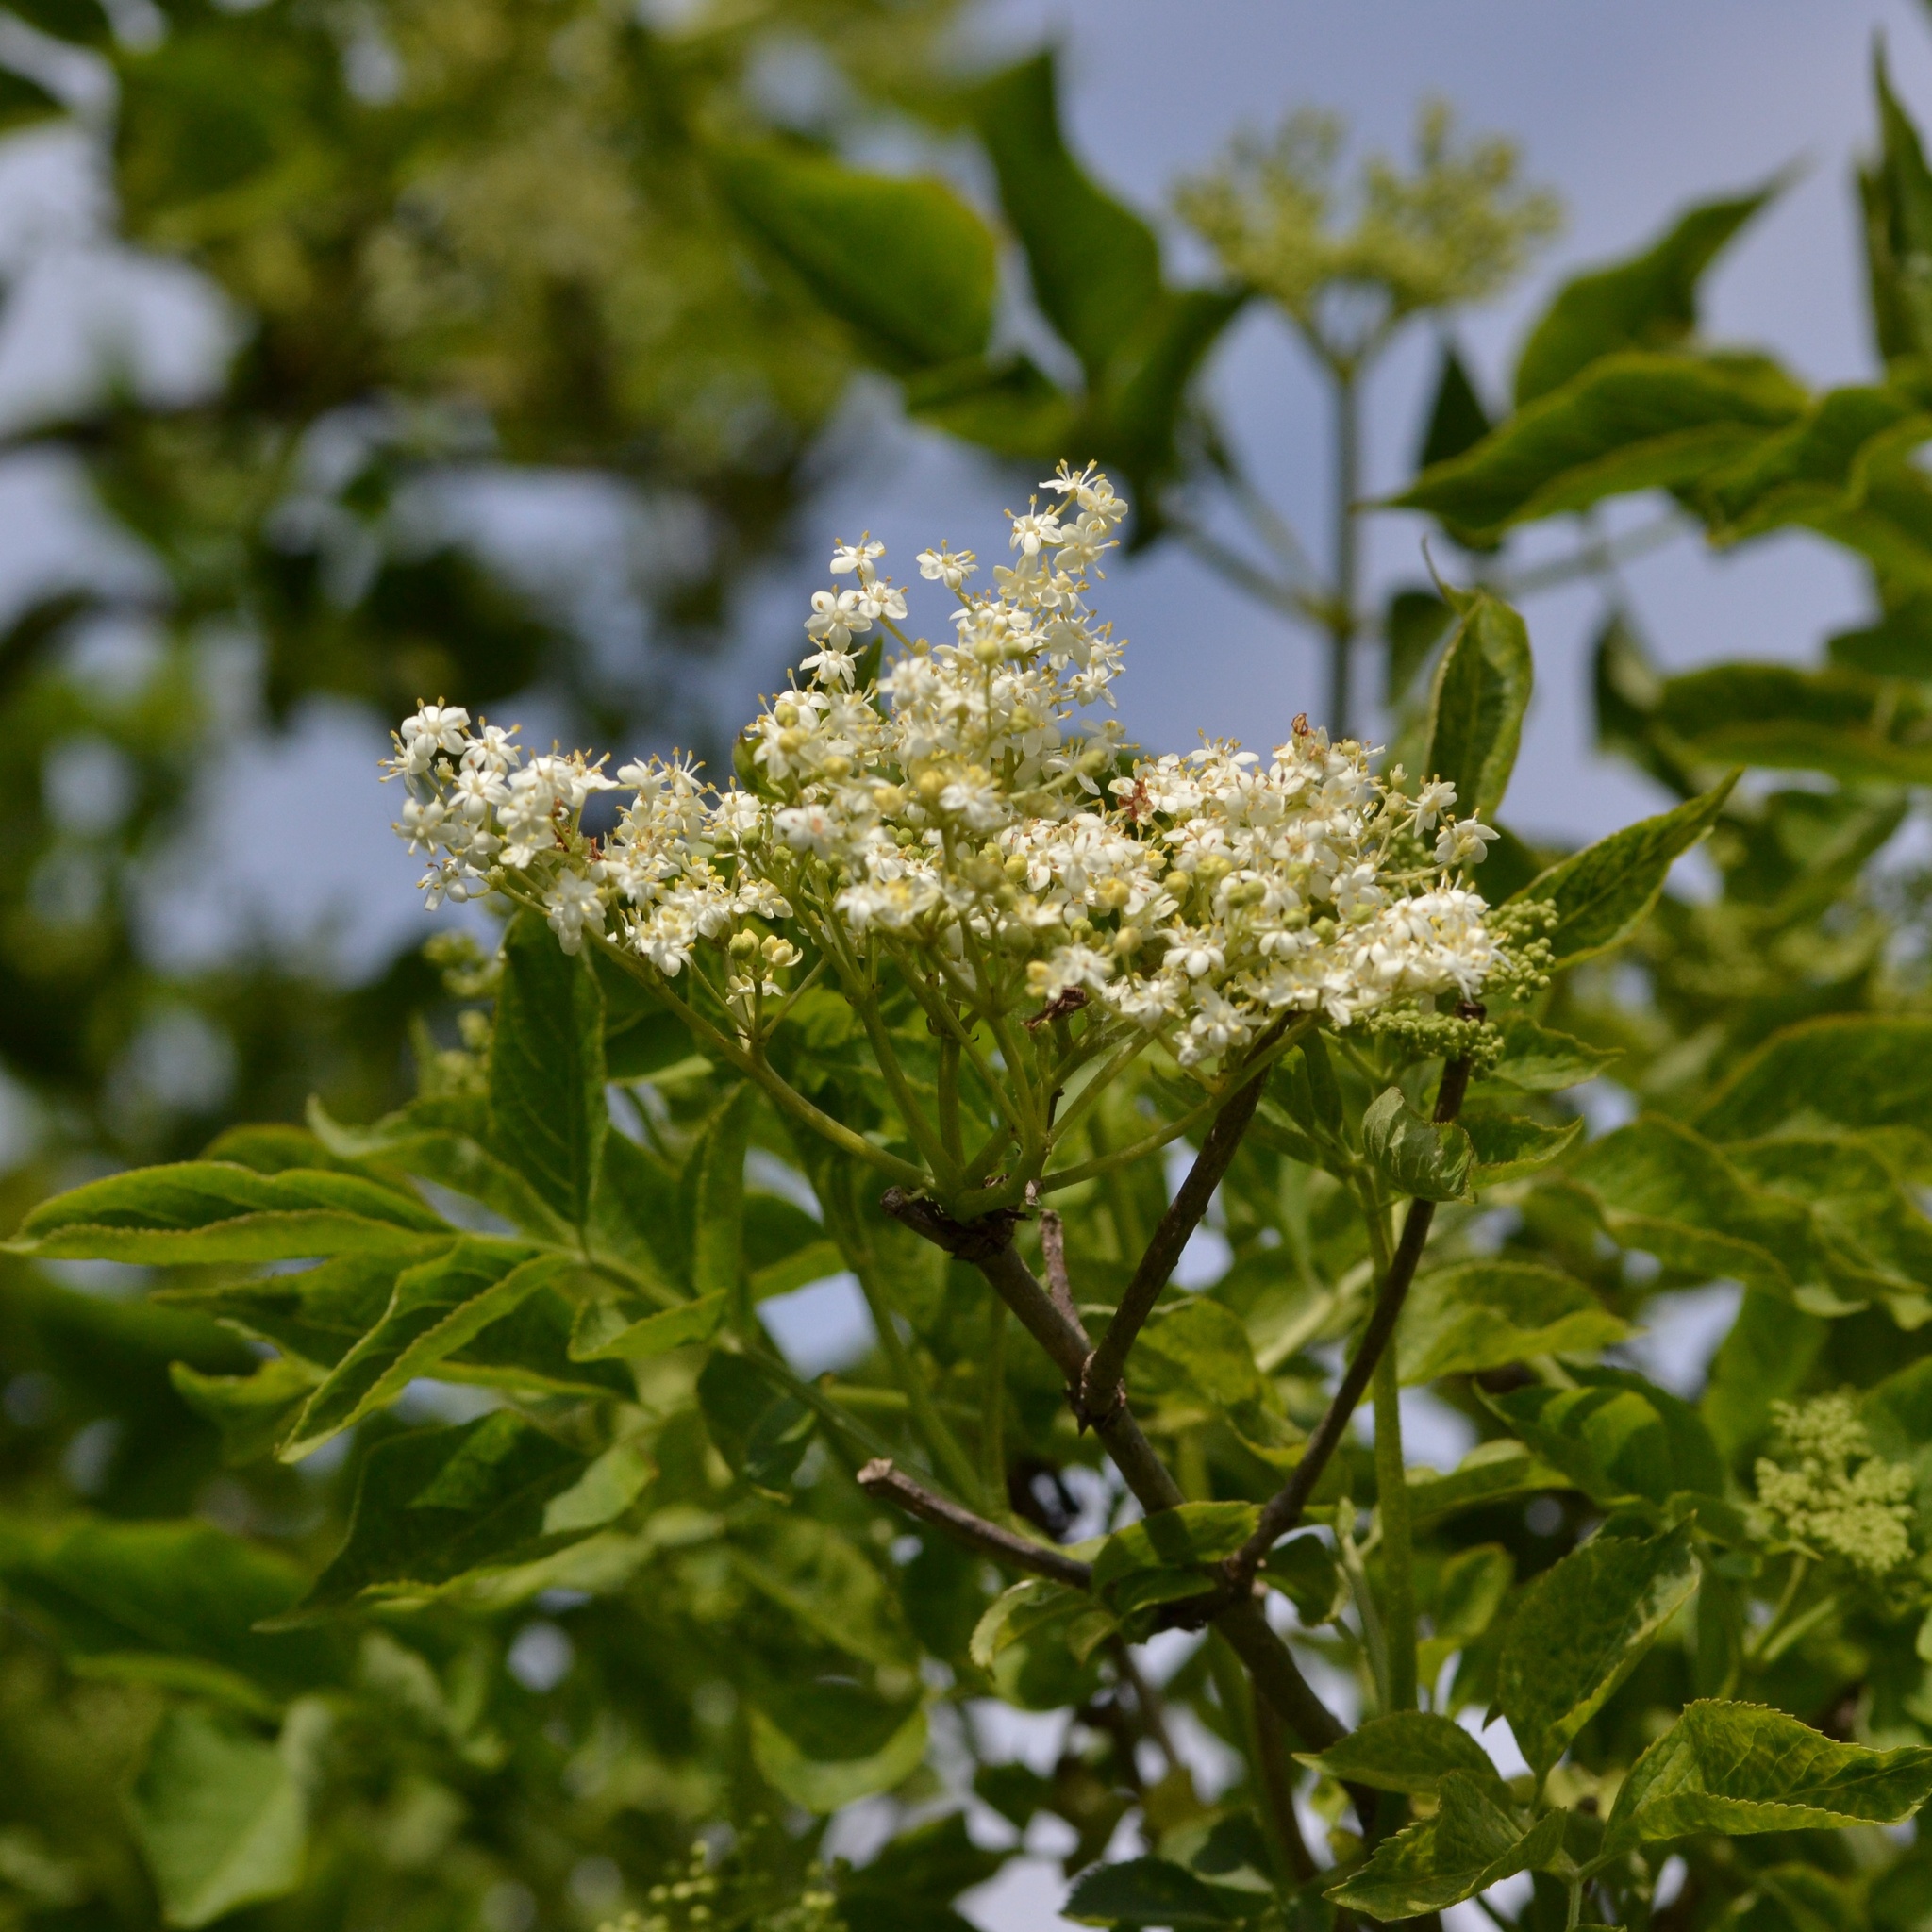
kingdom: Plantae
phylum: Tracheophyta
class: Magnoliopsida
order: Dipsacales
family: Viburnaceae
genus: Sambucus
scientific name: Sambucus nigra
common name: Elder
